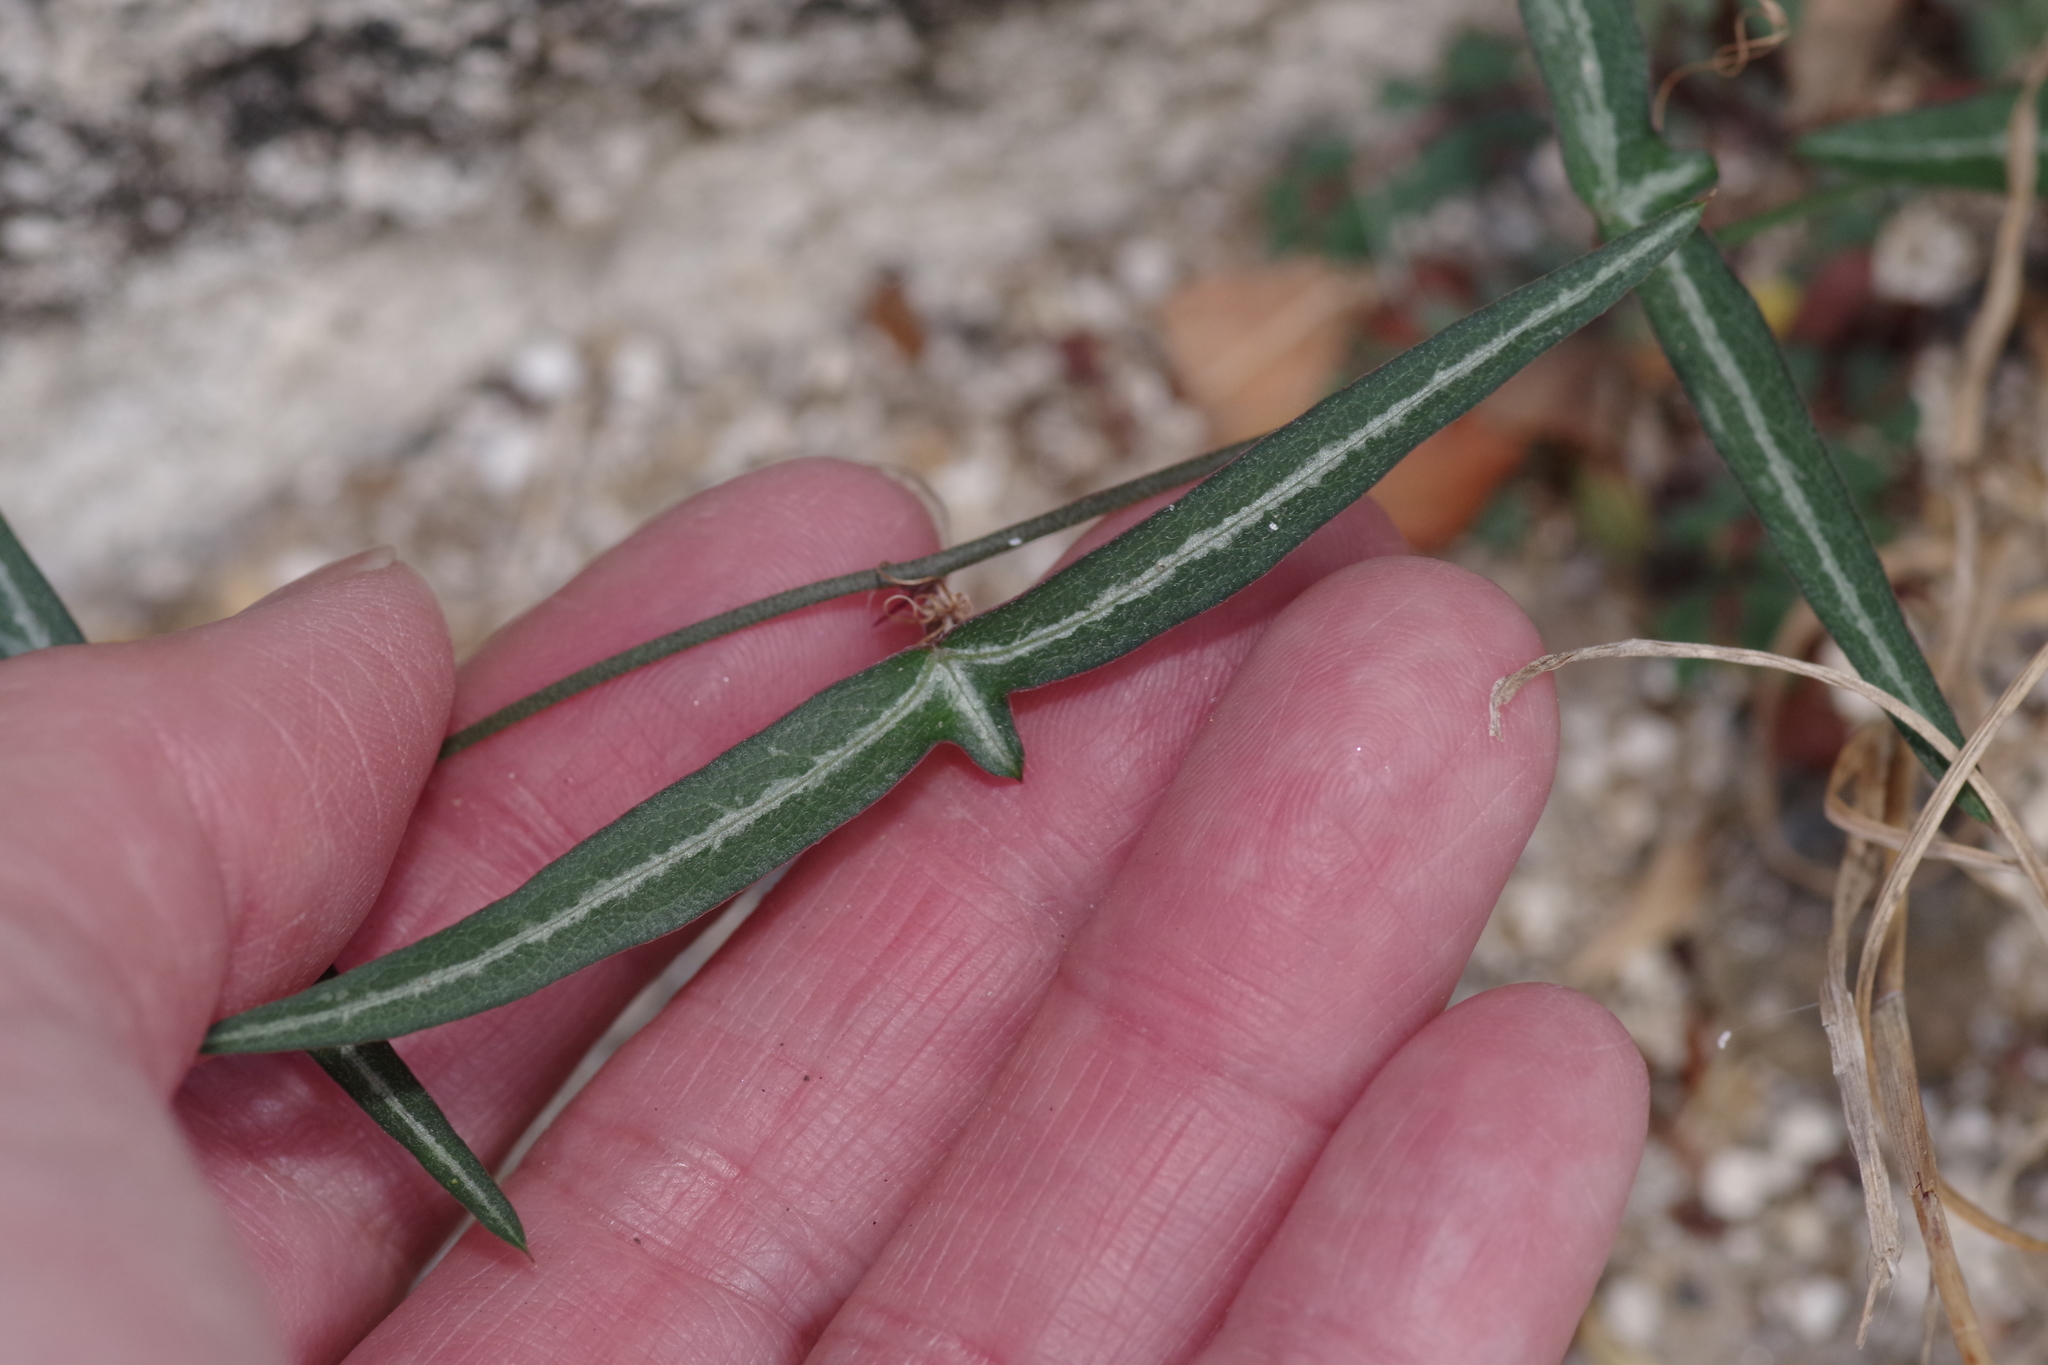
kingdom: Plantae
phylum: Tracheophyta
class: Magnoliopsida
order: Malpighiales
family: Passifloraceae
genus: Passiflora
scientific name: Passiflora tenuiloba
